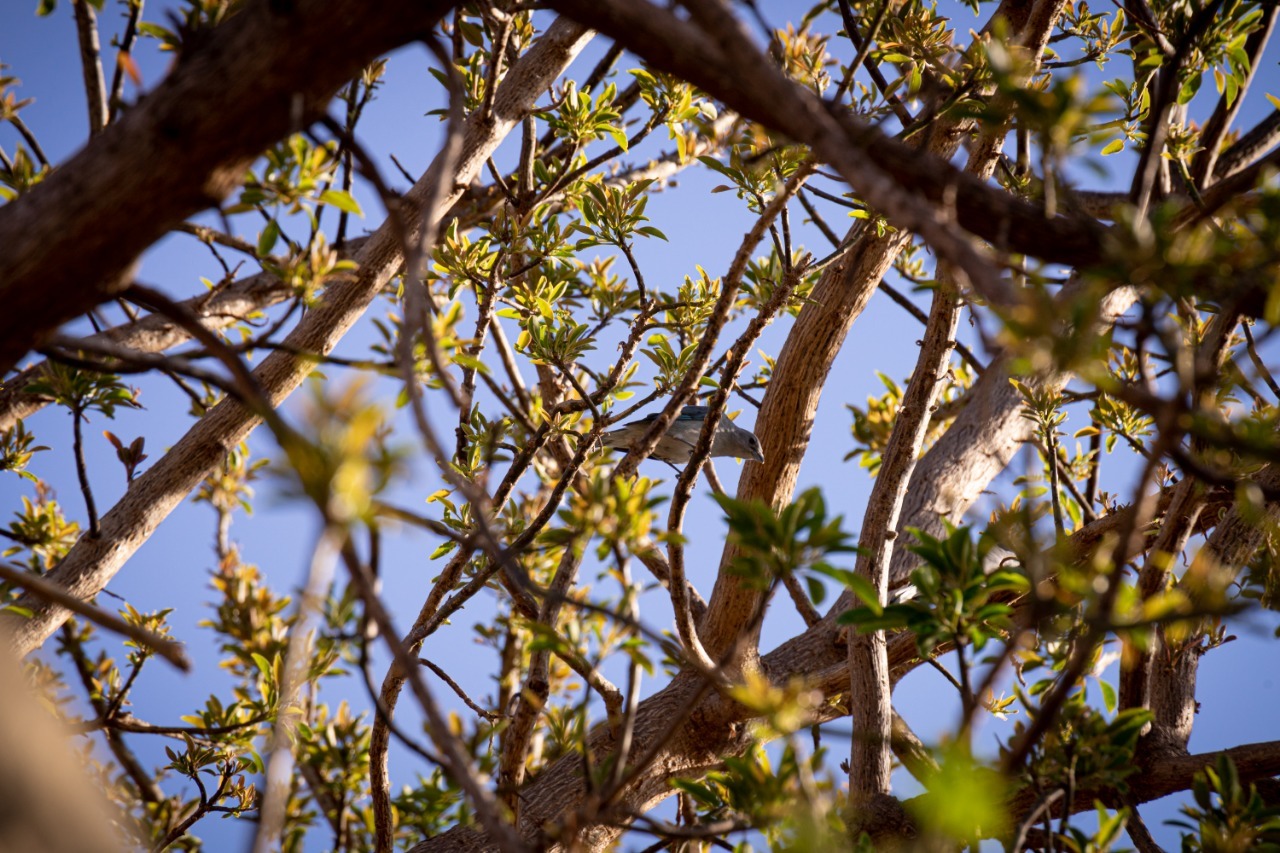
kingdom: Animalia
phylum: Chordata
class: Aves
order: Passeriformes
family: Thraupidae
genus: Thraupis
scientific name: Thraupis sayaca
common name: Sayaca tanager
